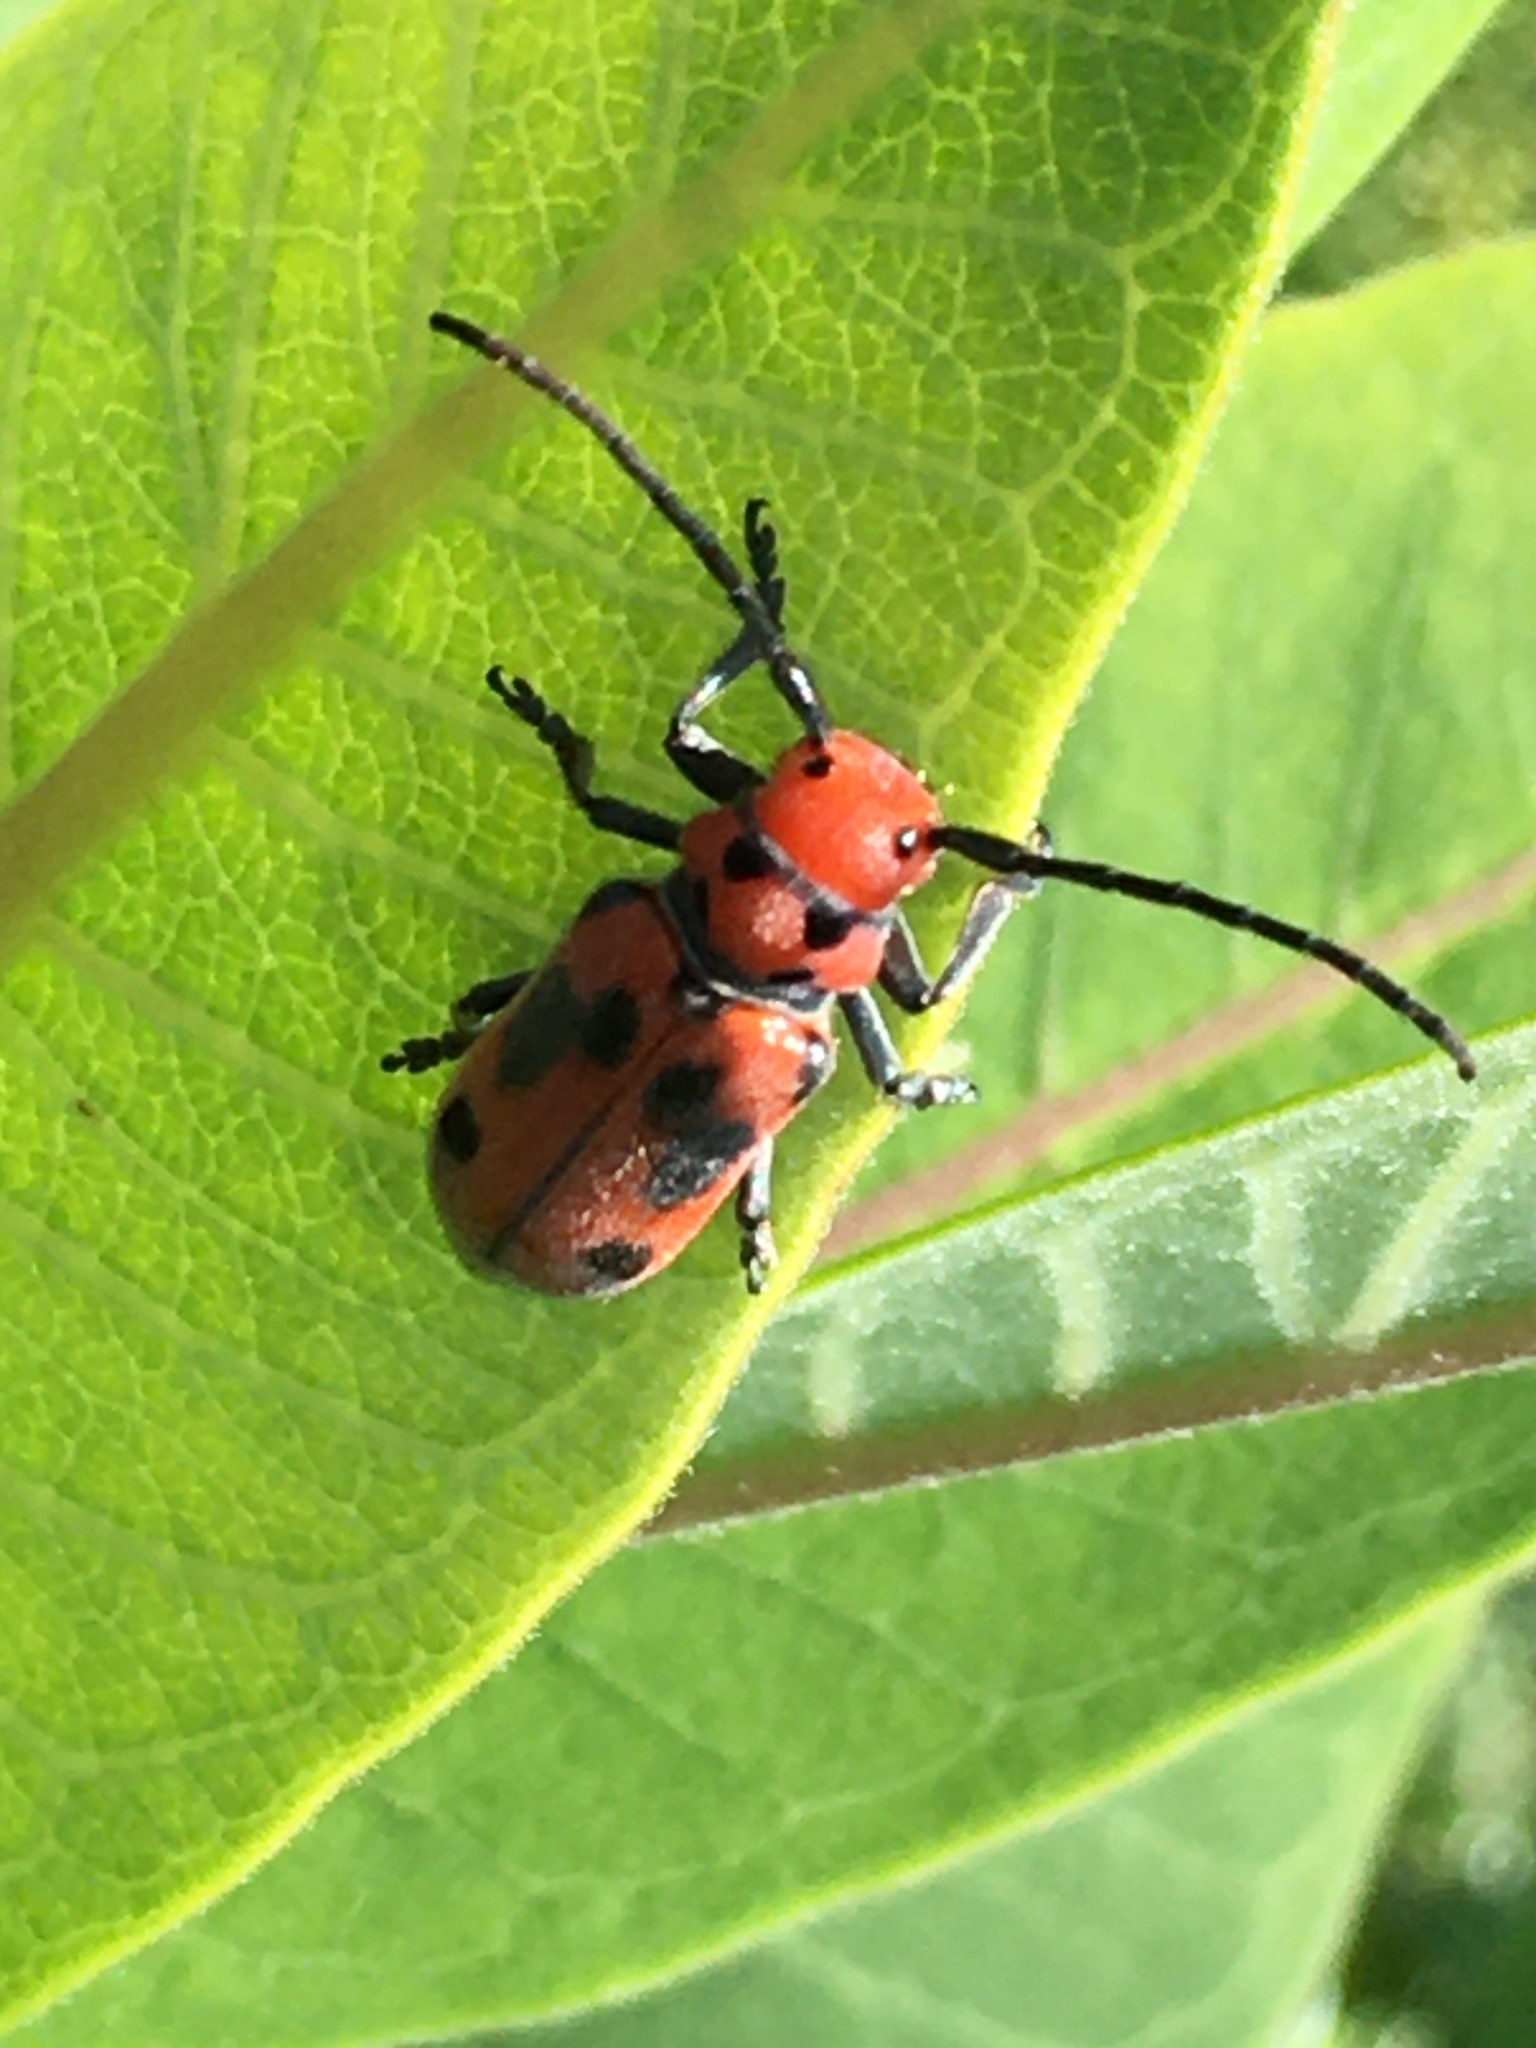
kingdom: Animalia
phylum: Arthropoda
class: Insecta
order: Coleoptera
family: Cerambycidae
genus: Tetraopes
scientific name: Tetraopes tetrophthalmus
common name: Red milkweed beetle
